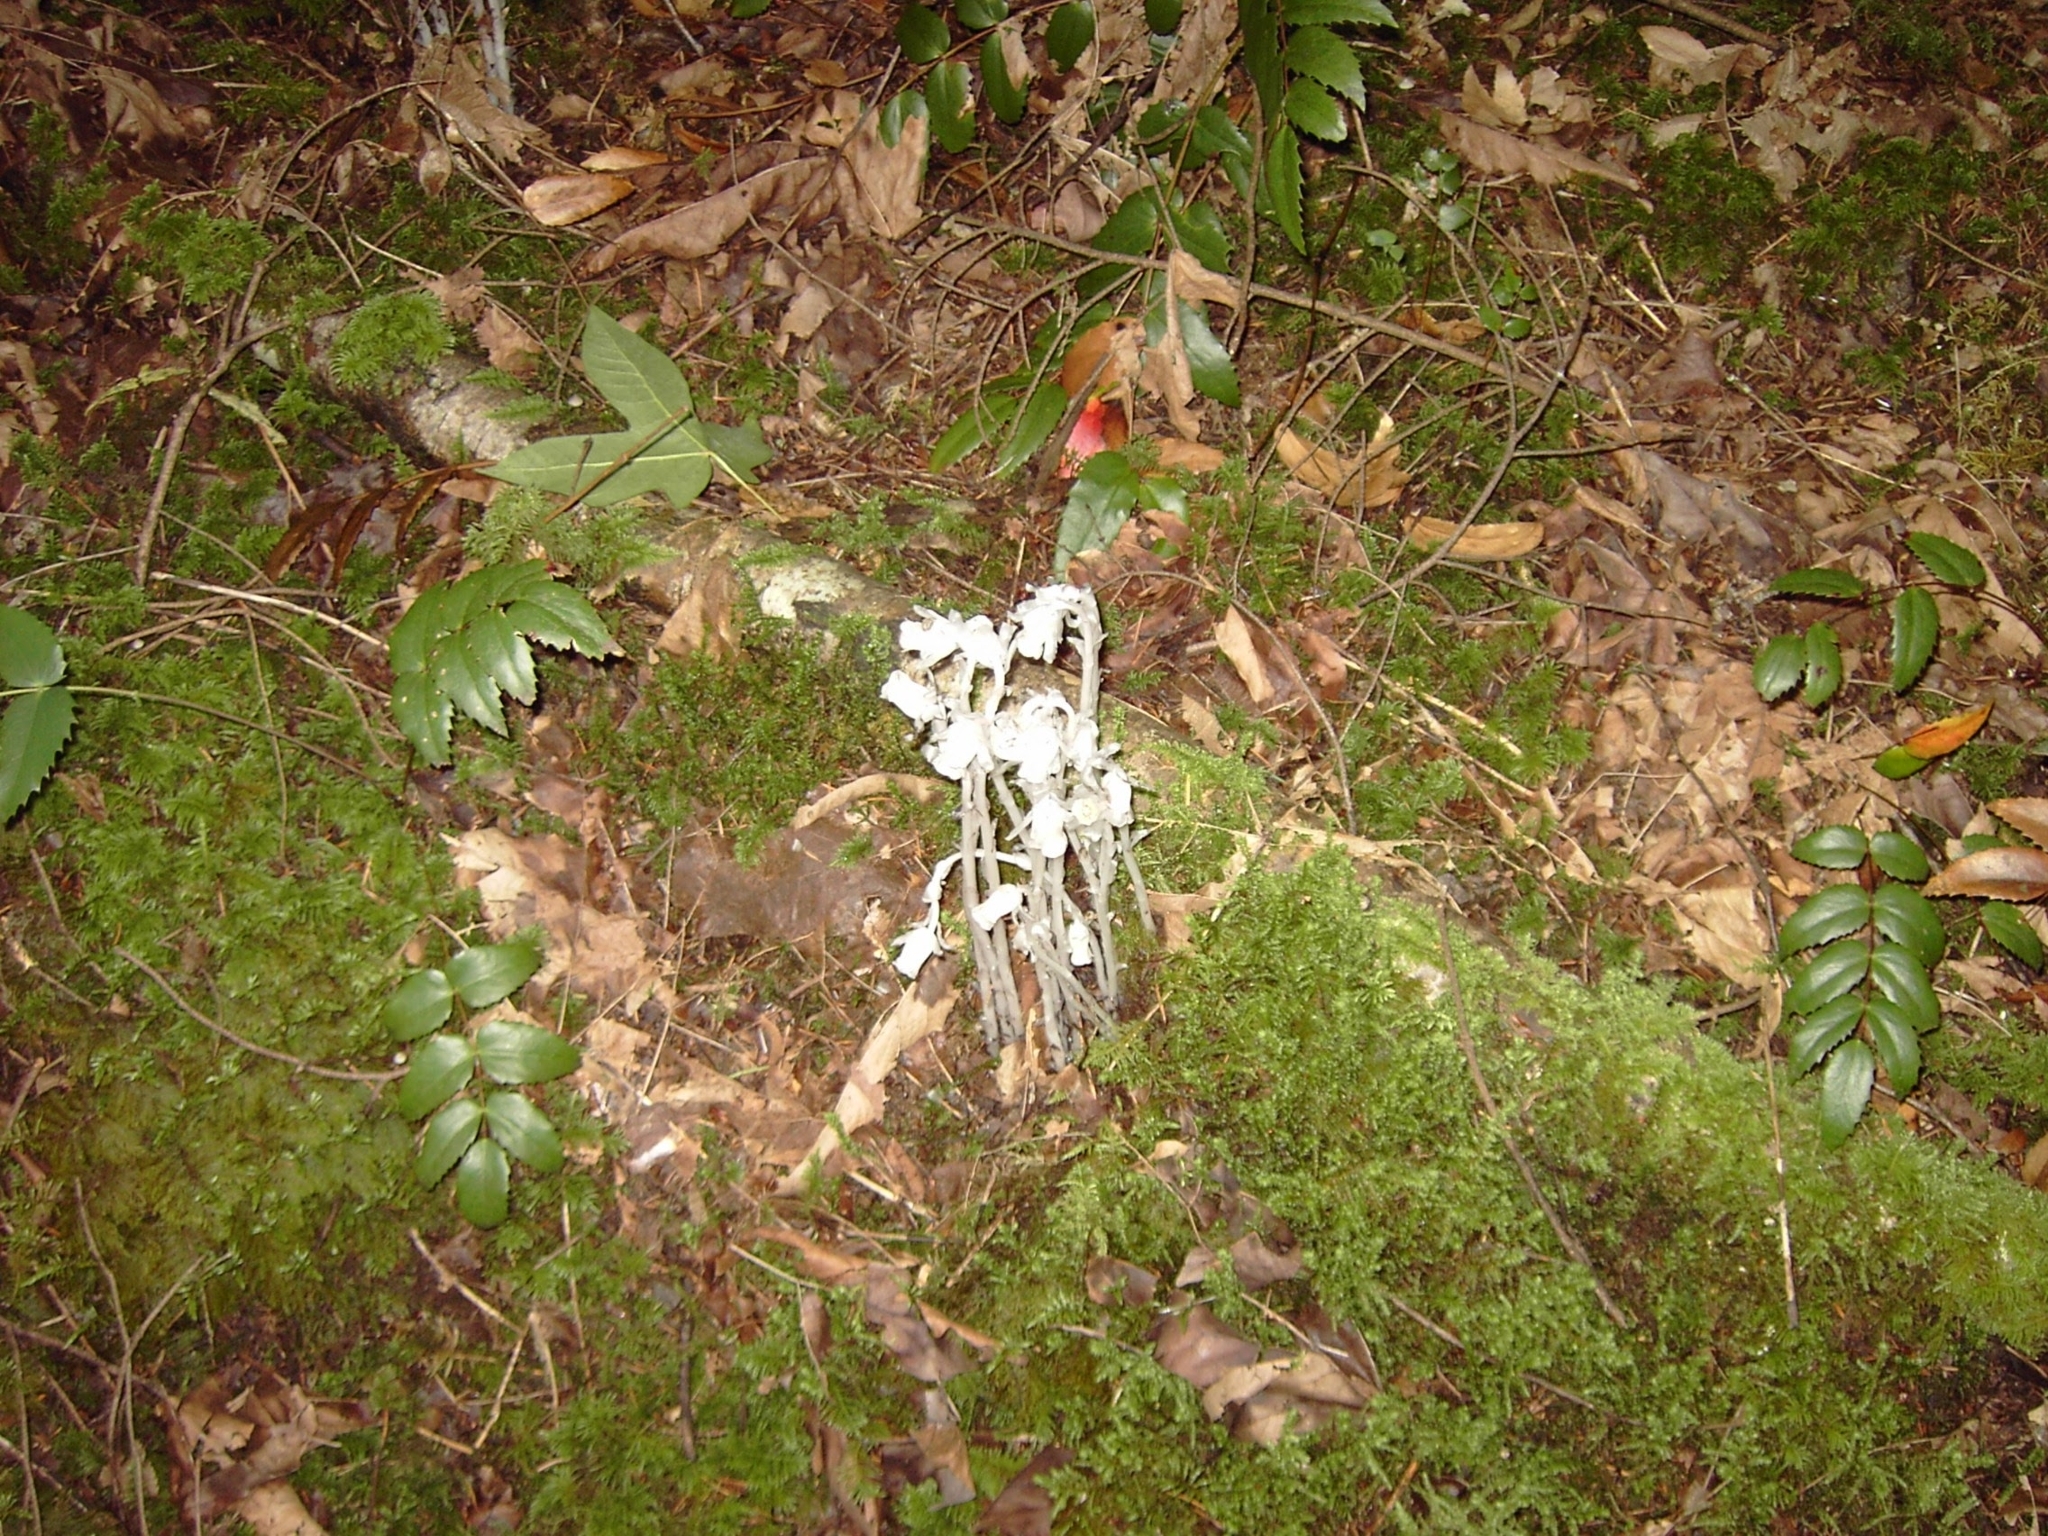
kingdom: Plantae
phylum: Tracheophyta
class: Magnoliopsida
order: Ericales
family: Ericaceae
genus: Monotropa
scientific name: Monotropa uniflora
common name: Convulsion root
